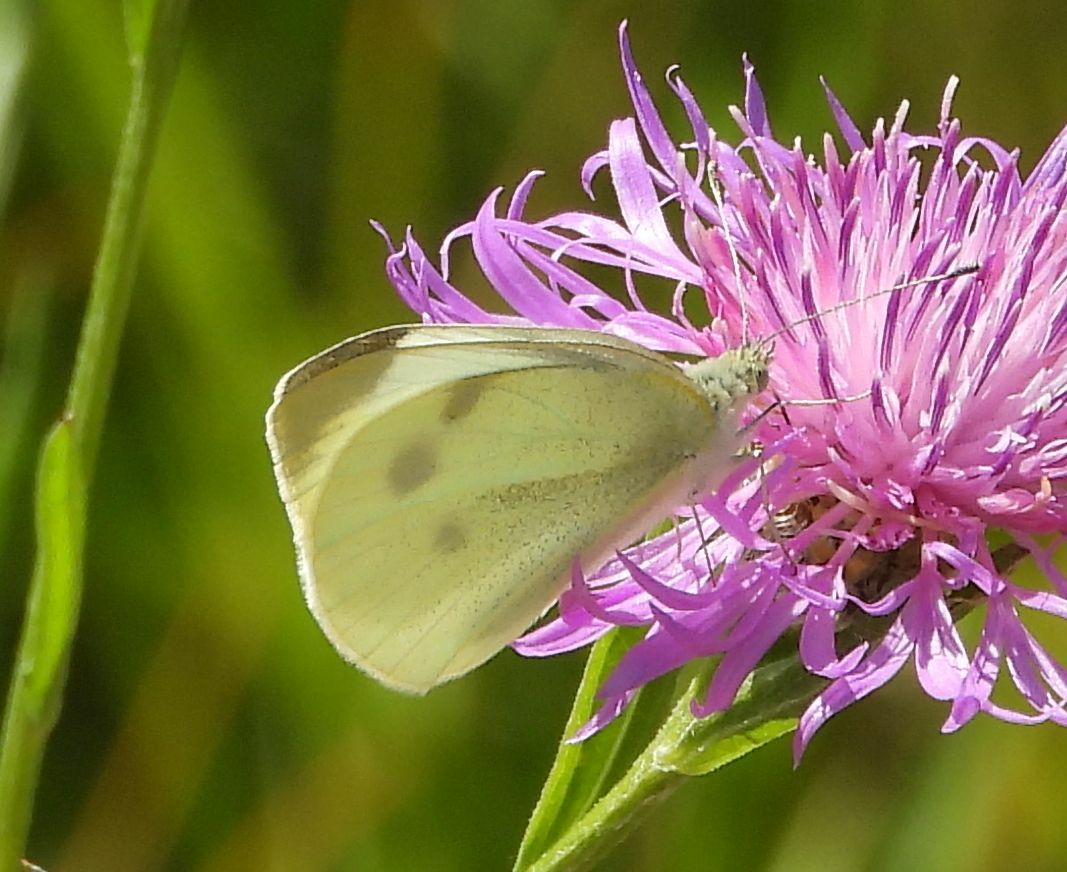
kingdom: Animalia
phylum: Arthropoda
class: Insecta
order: Lepidoptera
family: Pieridae
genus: Pieris
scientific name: Pieris rapae
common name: Small white
